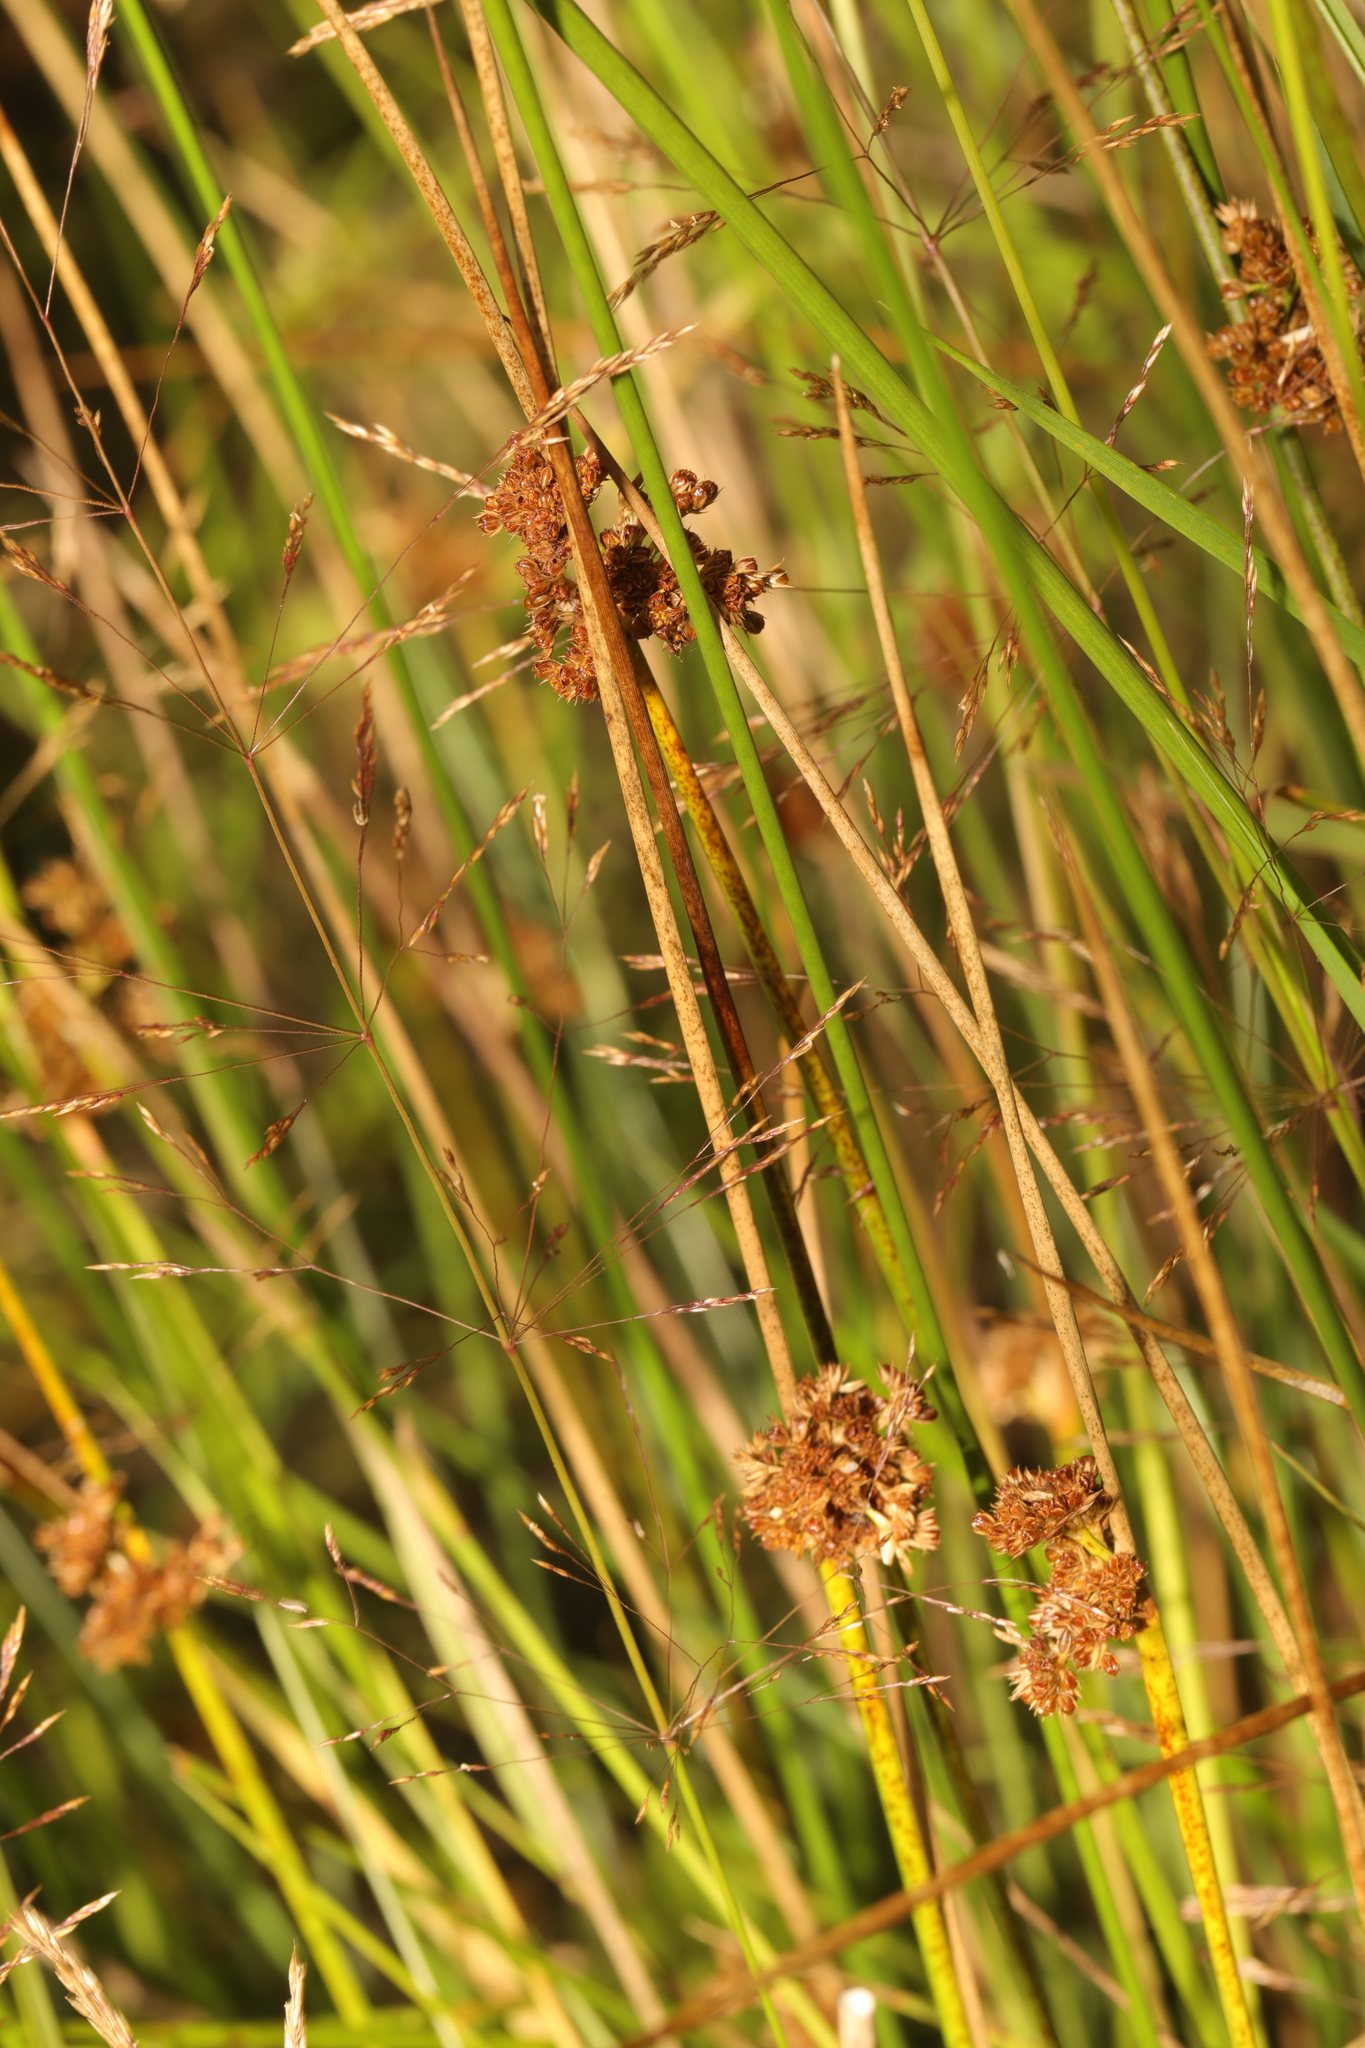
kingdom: Plantae
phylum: Tracheophyta
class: Liliopsida
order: Poales
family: Juncaceae
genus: Juncus
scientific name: Juncus effusus
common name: Soft rush
